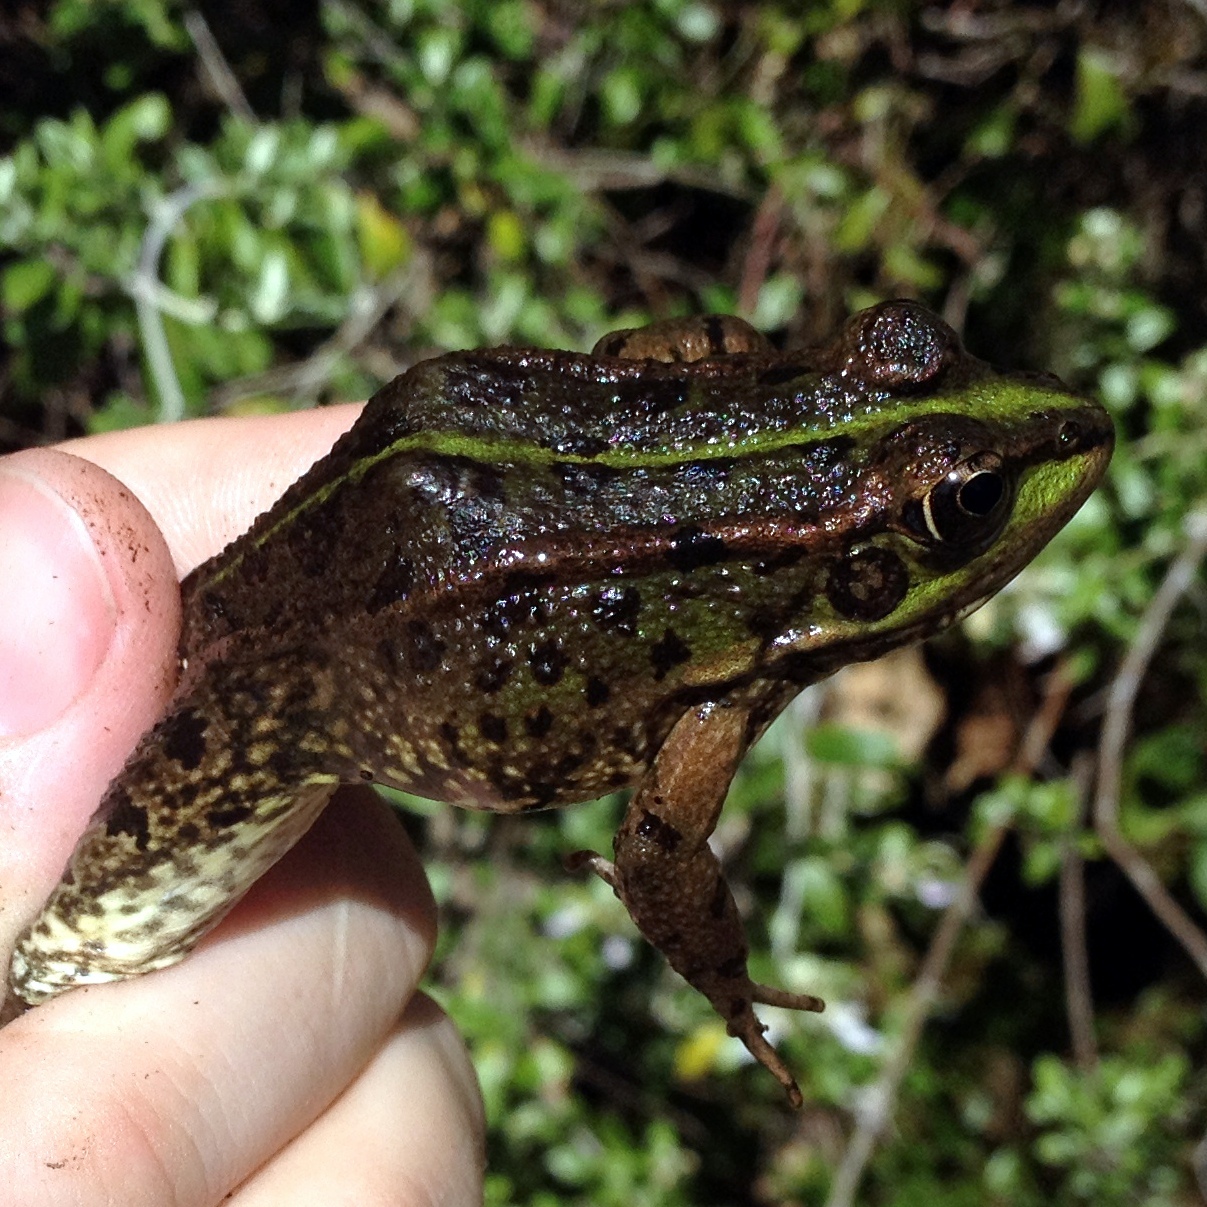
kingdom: Animalia
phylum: Chordata
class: Amphibia
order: Anura
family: Ranidae
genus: Pelophylax
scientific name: Pelophylax perezi
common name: Perez's frog
